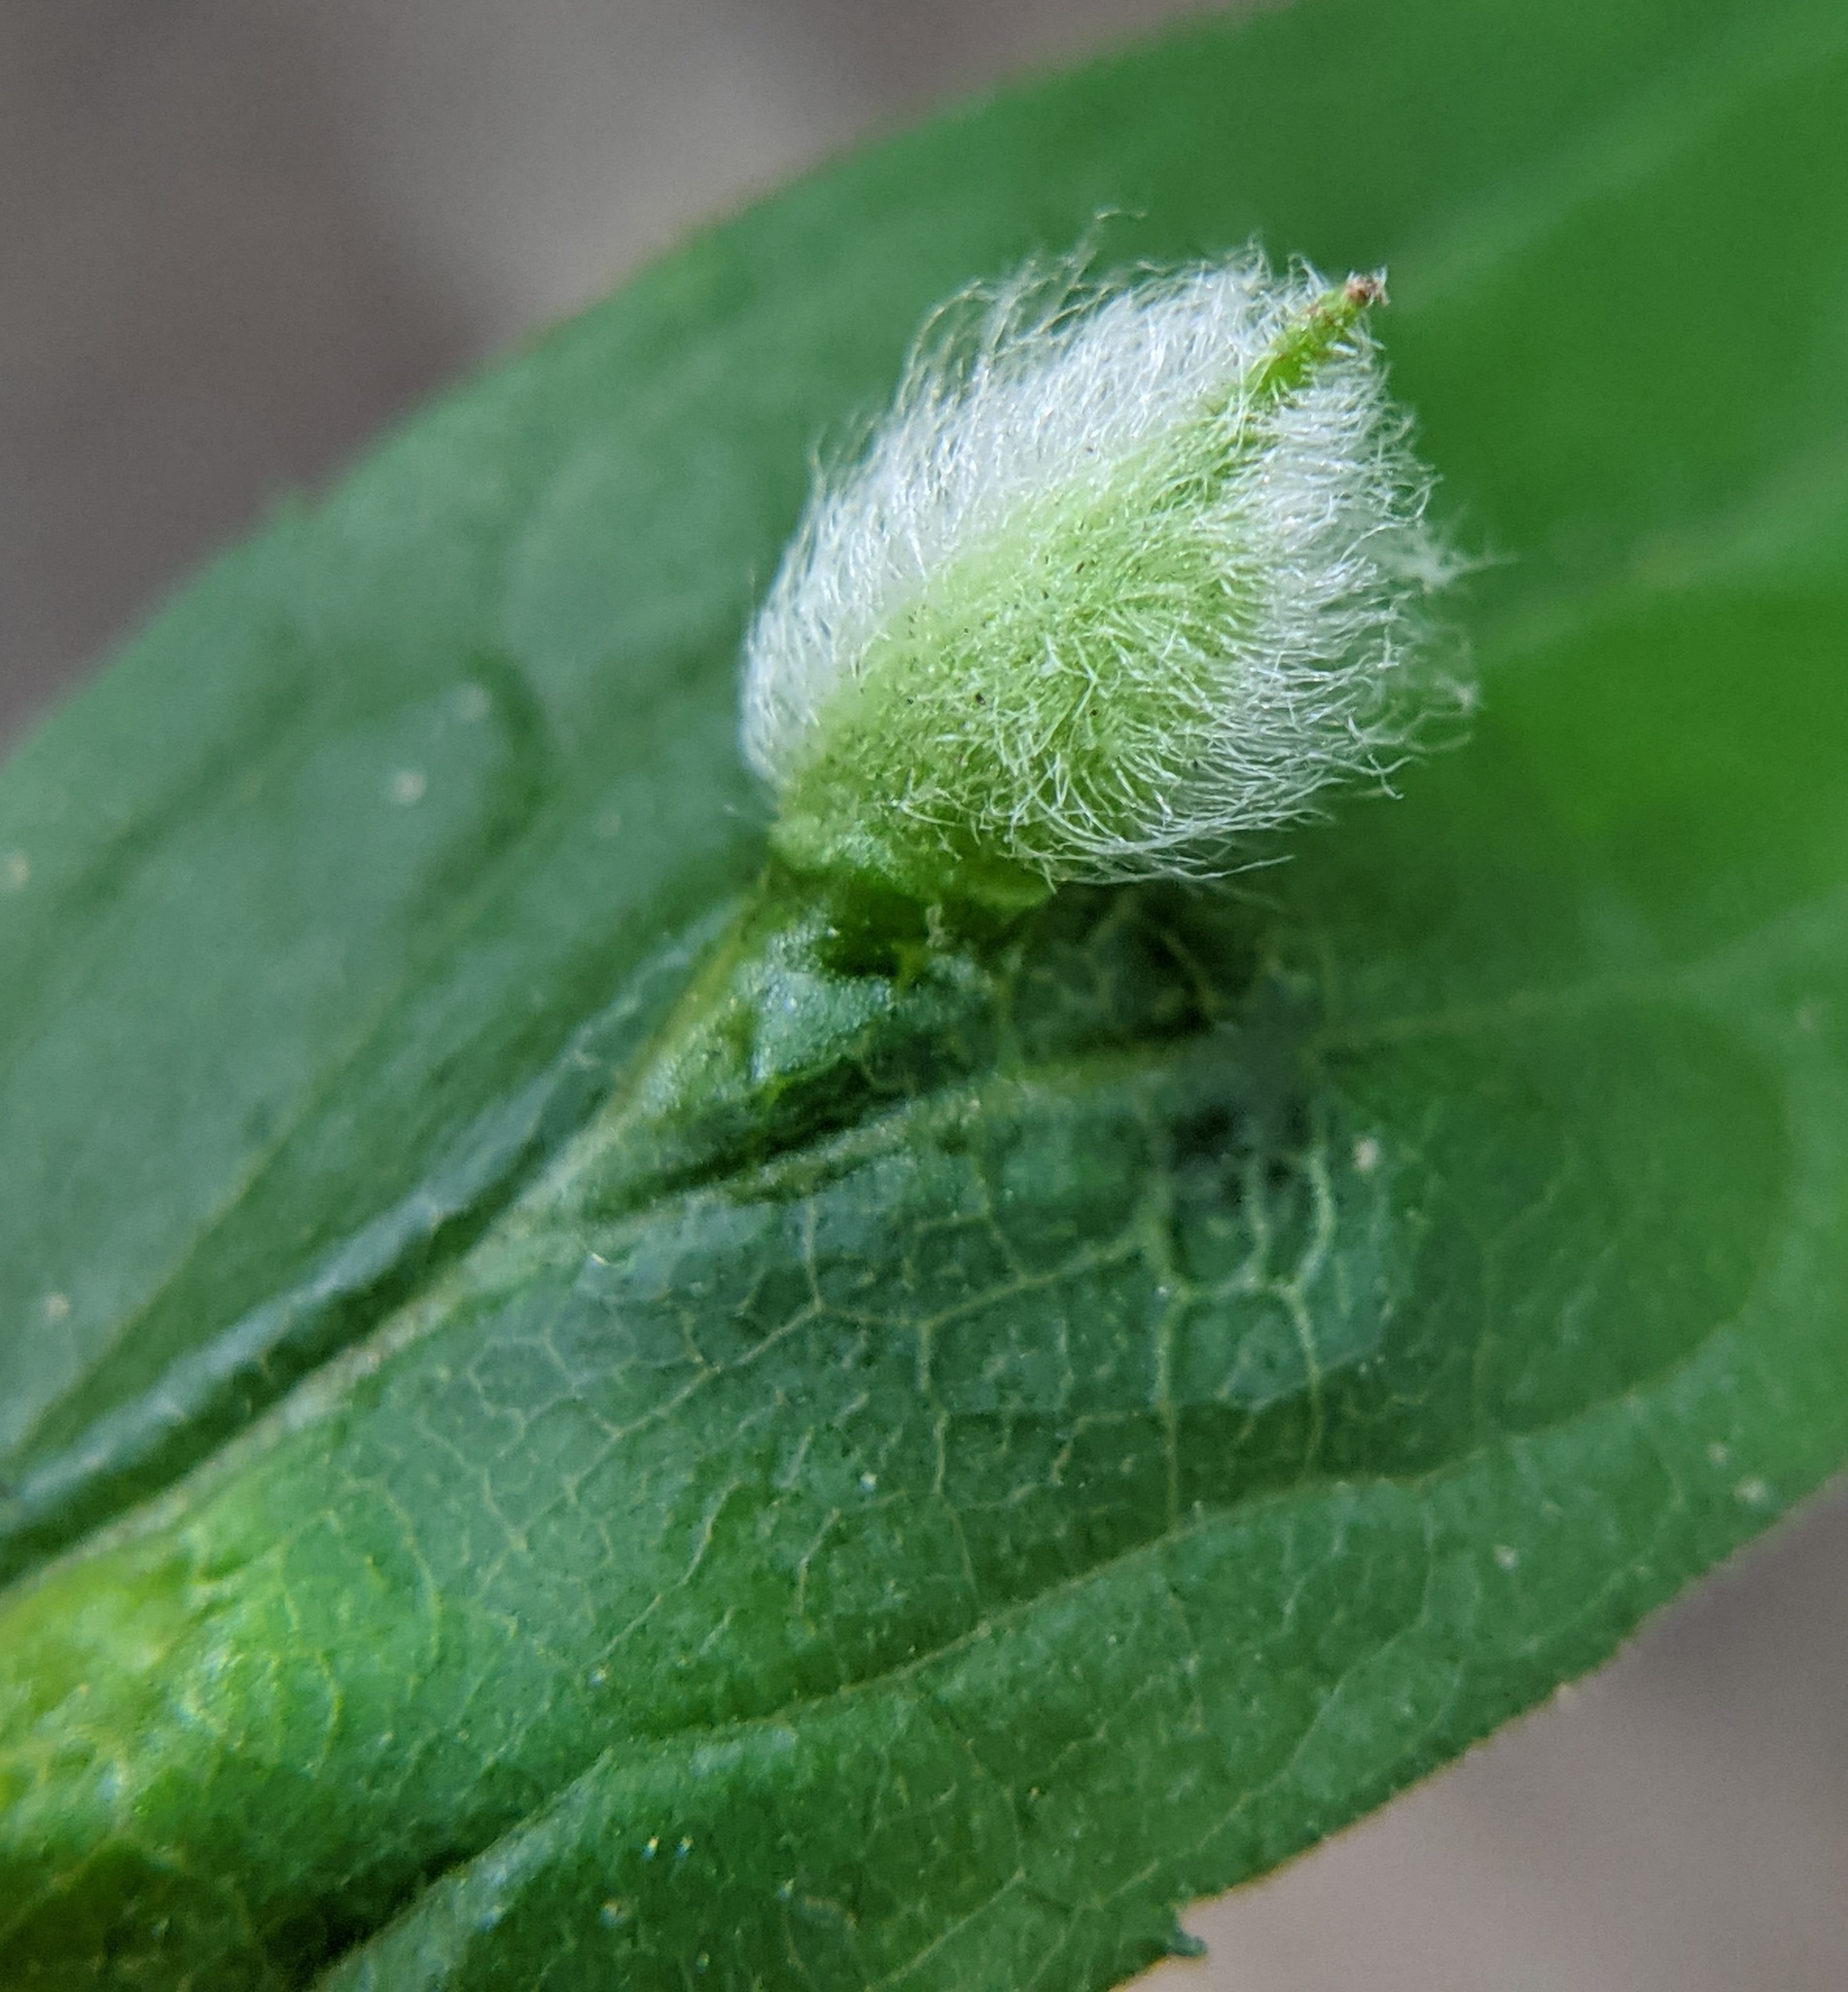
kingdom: Animalia
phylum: Arthropoda
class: Insecta
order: Diptera
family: Cecidomyiidae
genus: Rhopalomyia
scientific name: Rhopalomyia clarkei
